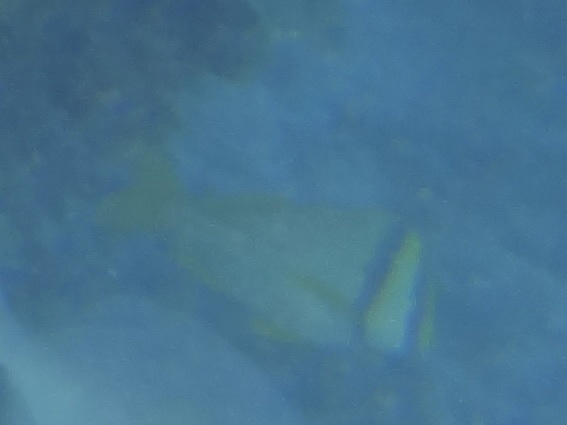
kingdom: Animalia
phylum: Chordata
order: Perciformes
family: Haemulidae
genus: Anisotremus
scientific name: Anisotremus virginicus
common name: Porkfish
